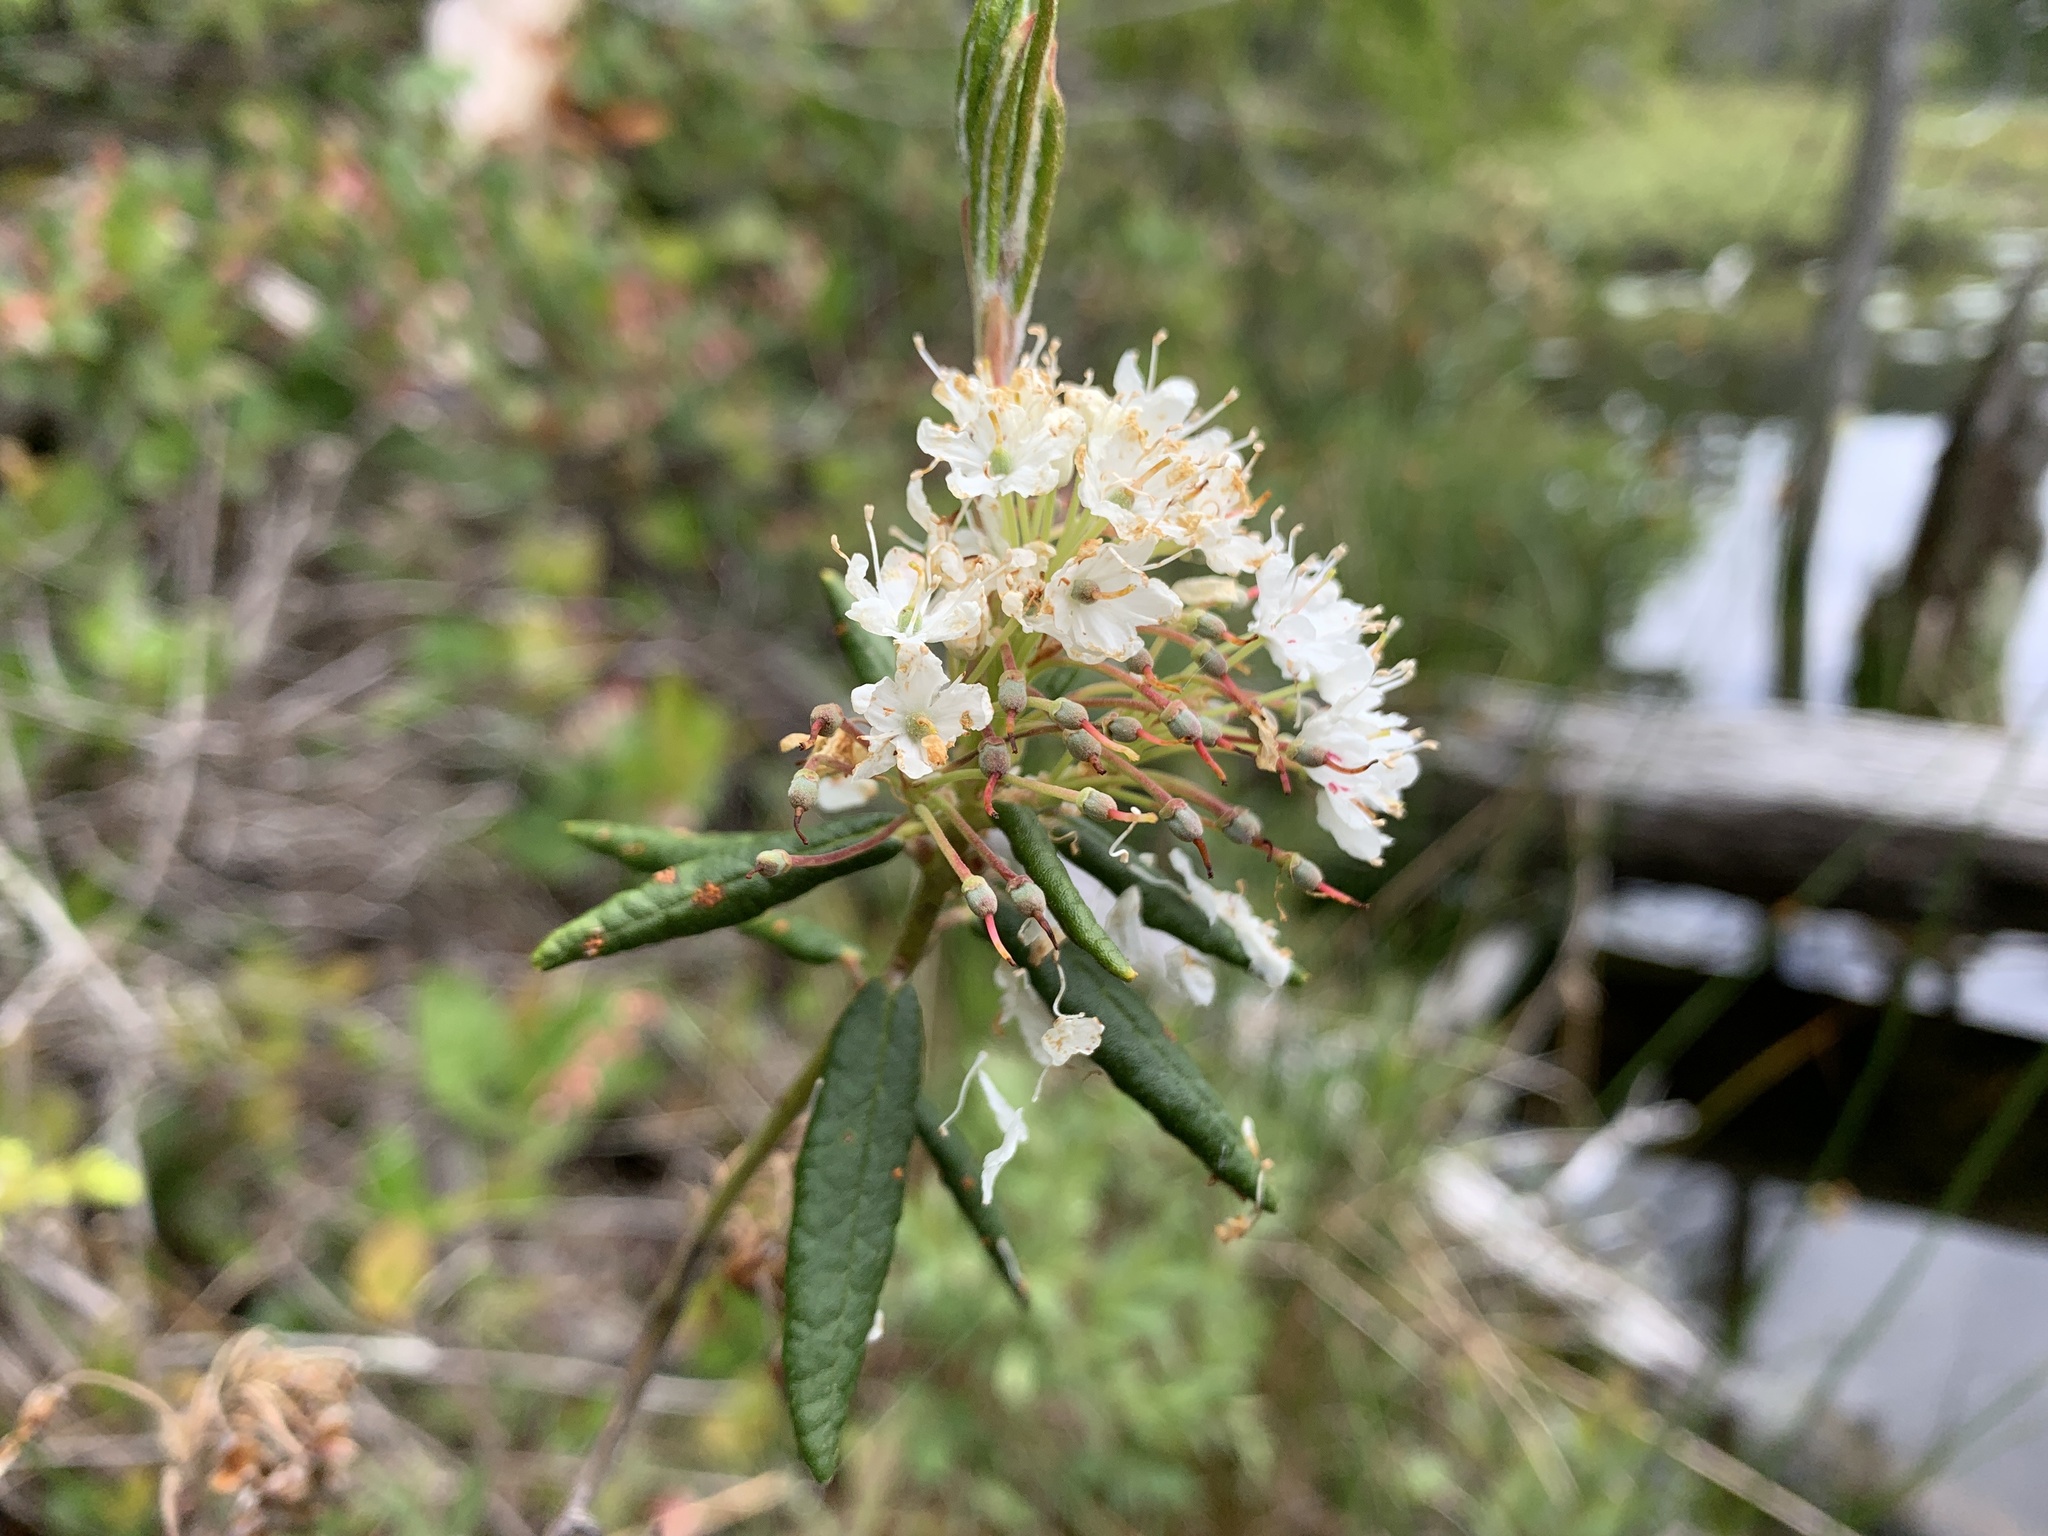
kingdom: Plantae
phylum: Tracheophyta
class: Magnoliopsida
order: Ericales
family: Ericaceae
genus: Rhododendron
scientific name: Rhododendron groenlandicum
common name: Bog labrador tea
